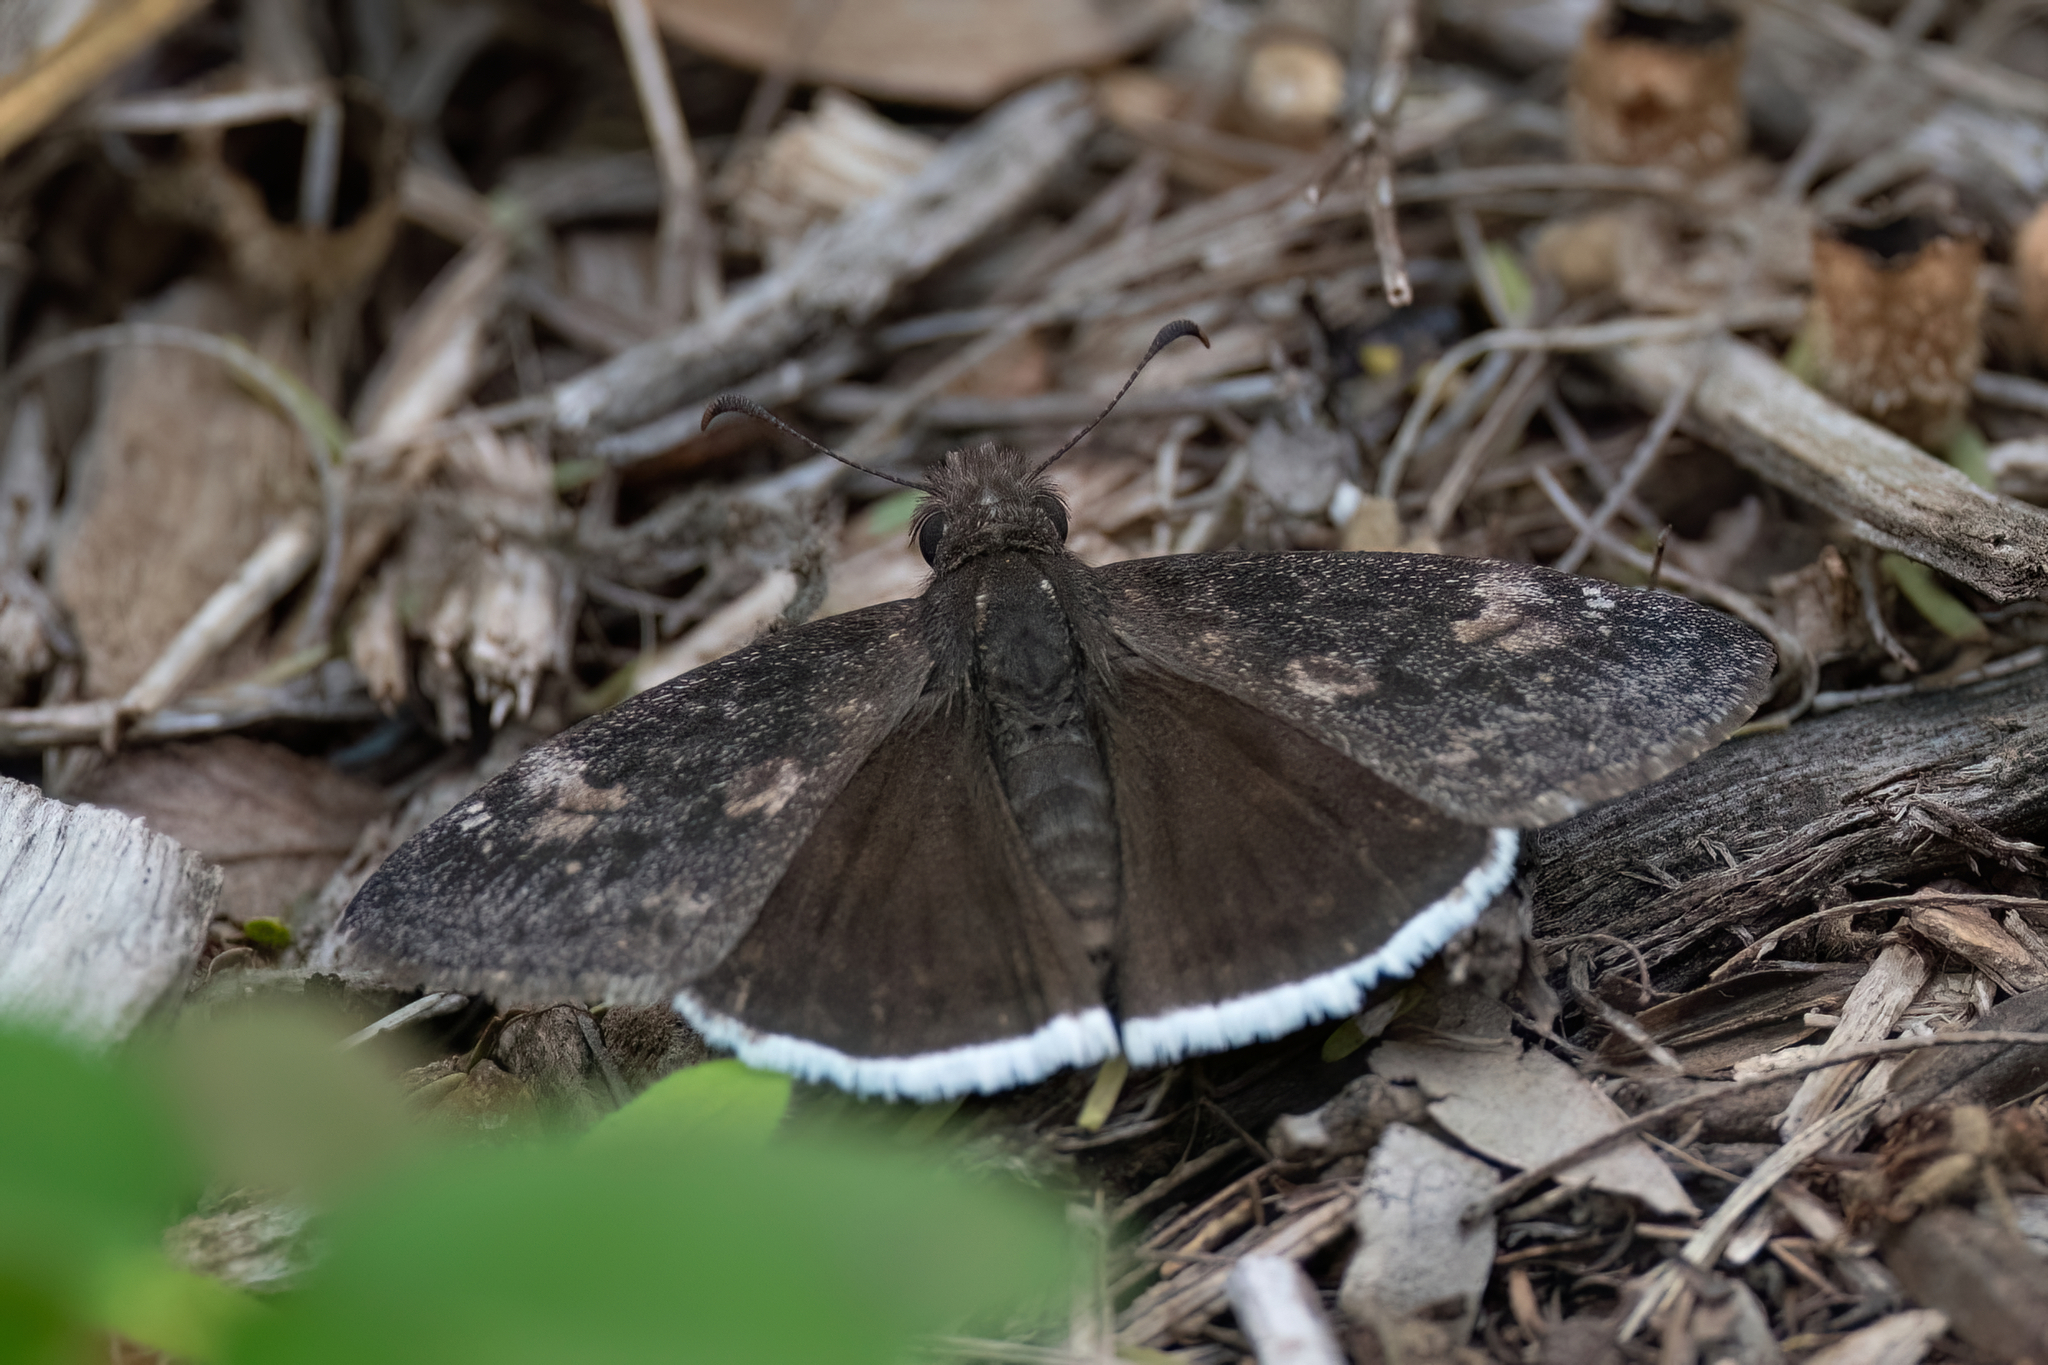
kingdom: Animalia
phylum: Arthropoda
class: Insecta
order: Lepidoptera
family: Hesperiidae
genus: Erynnis
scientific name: Erynnis funeralis
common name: Funereal duskywing
